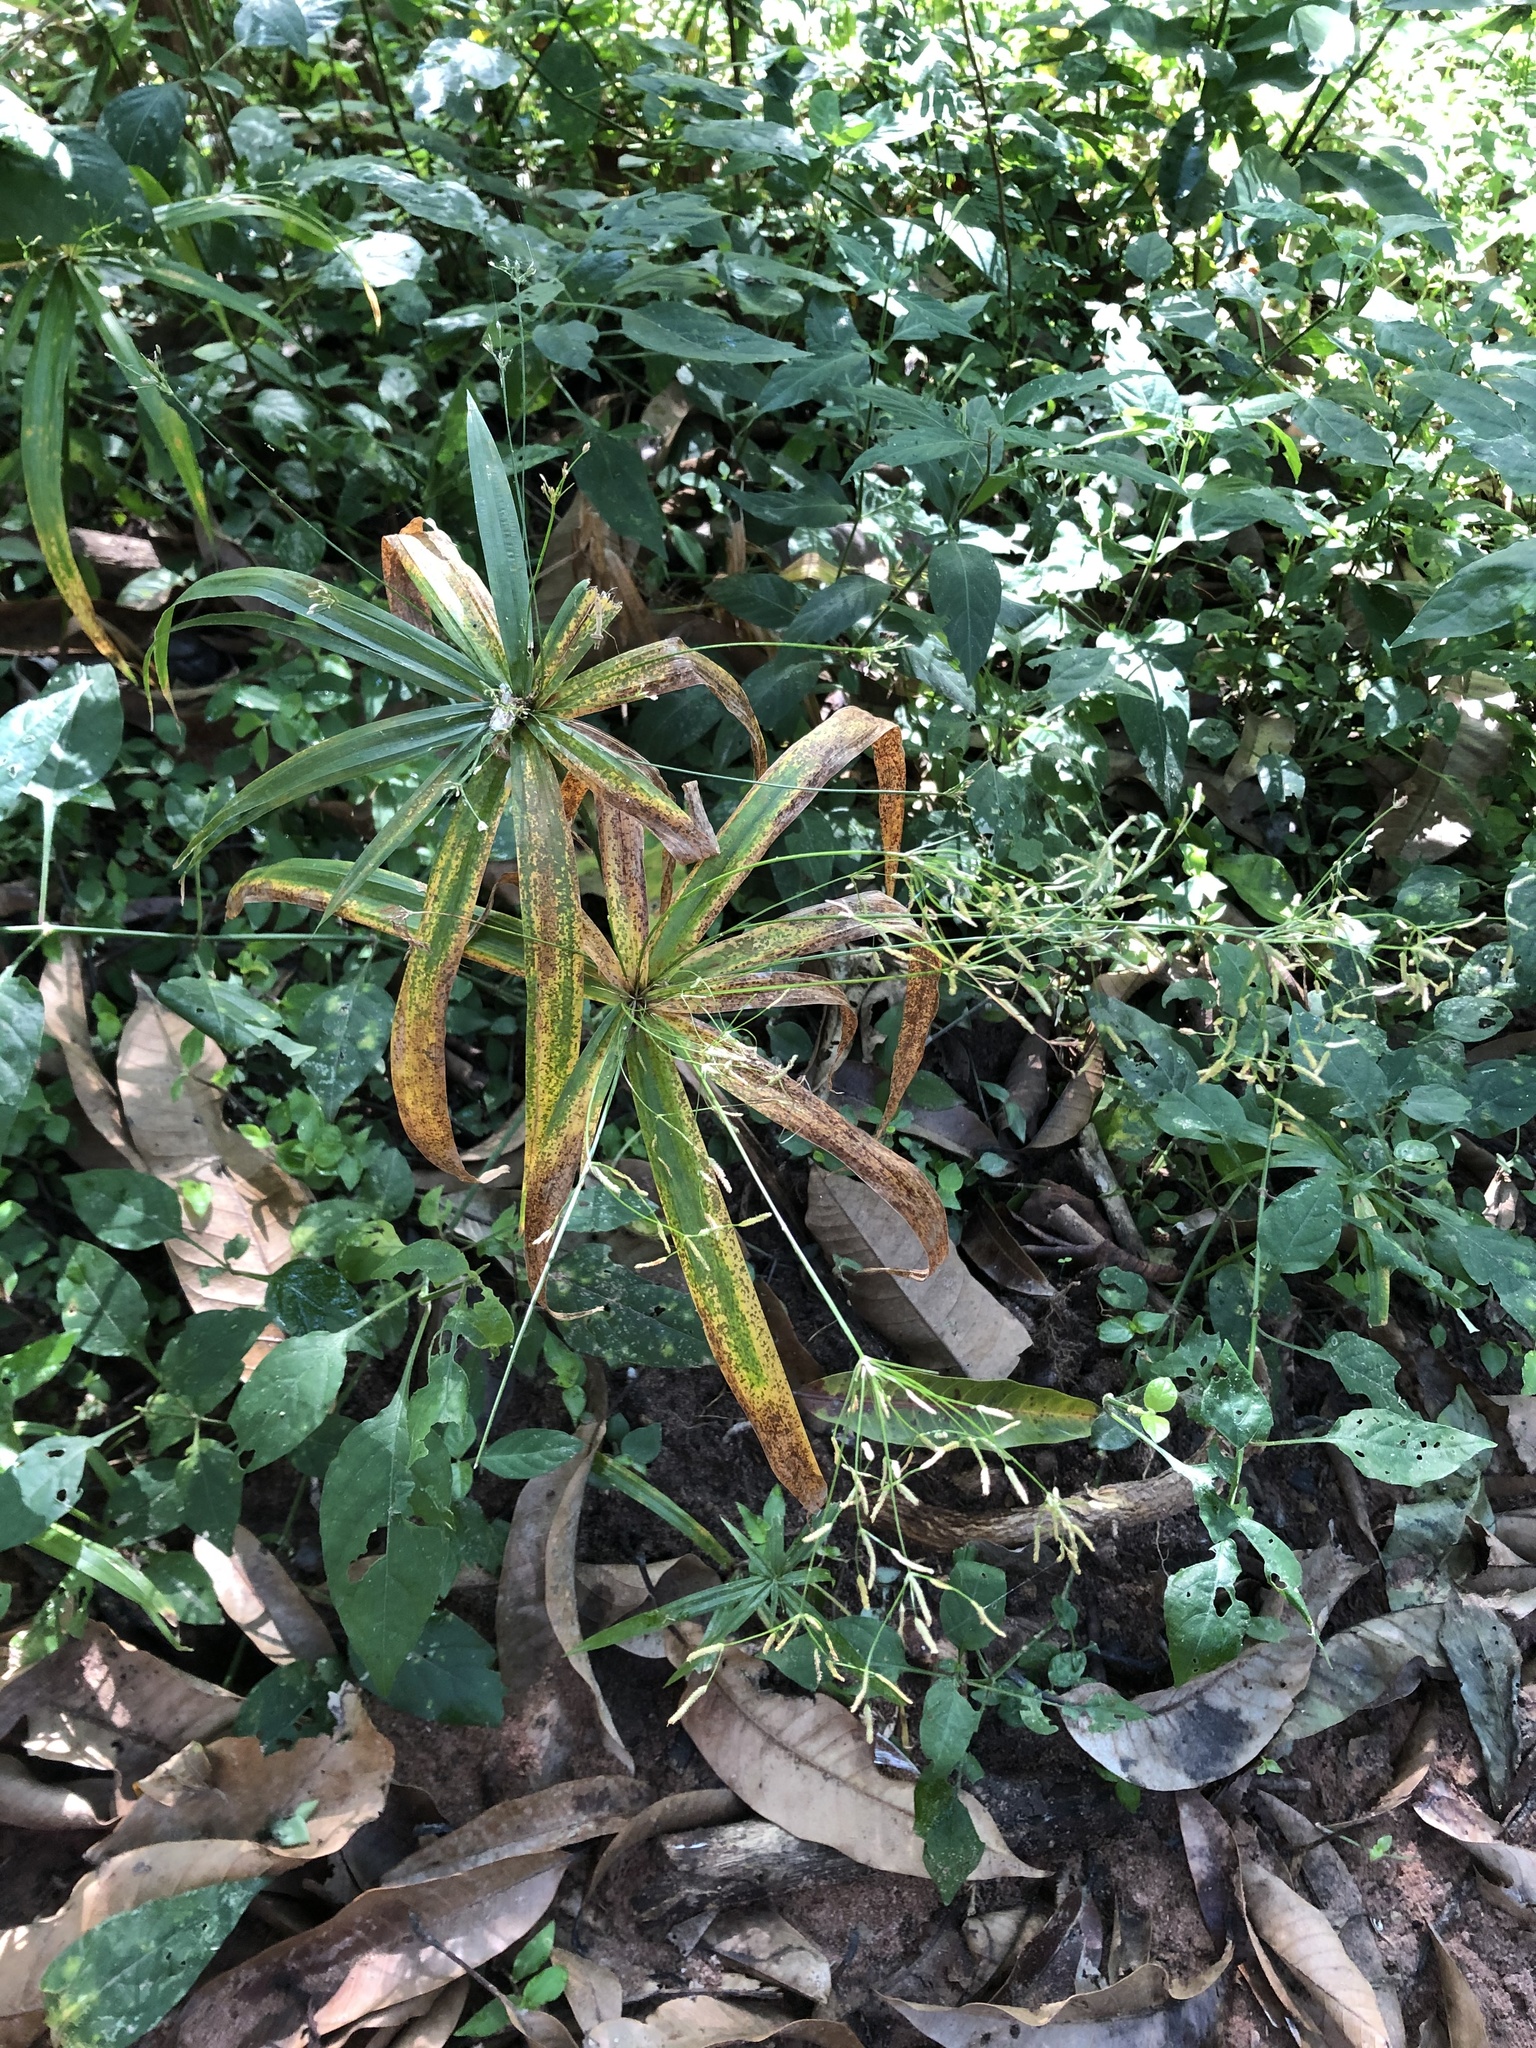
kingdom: Plantae
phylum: Tracheophyta
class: Liliopsida
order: Poales
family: Cyperaceae
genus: Cyperus
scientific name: Cyperus albostriatus
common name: Dwarf umbrella-grass
